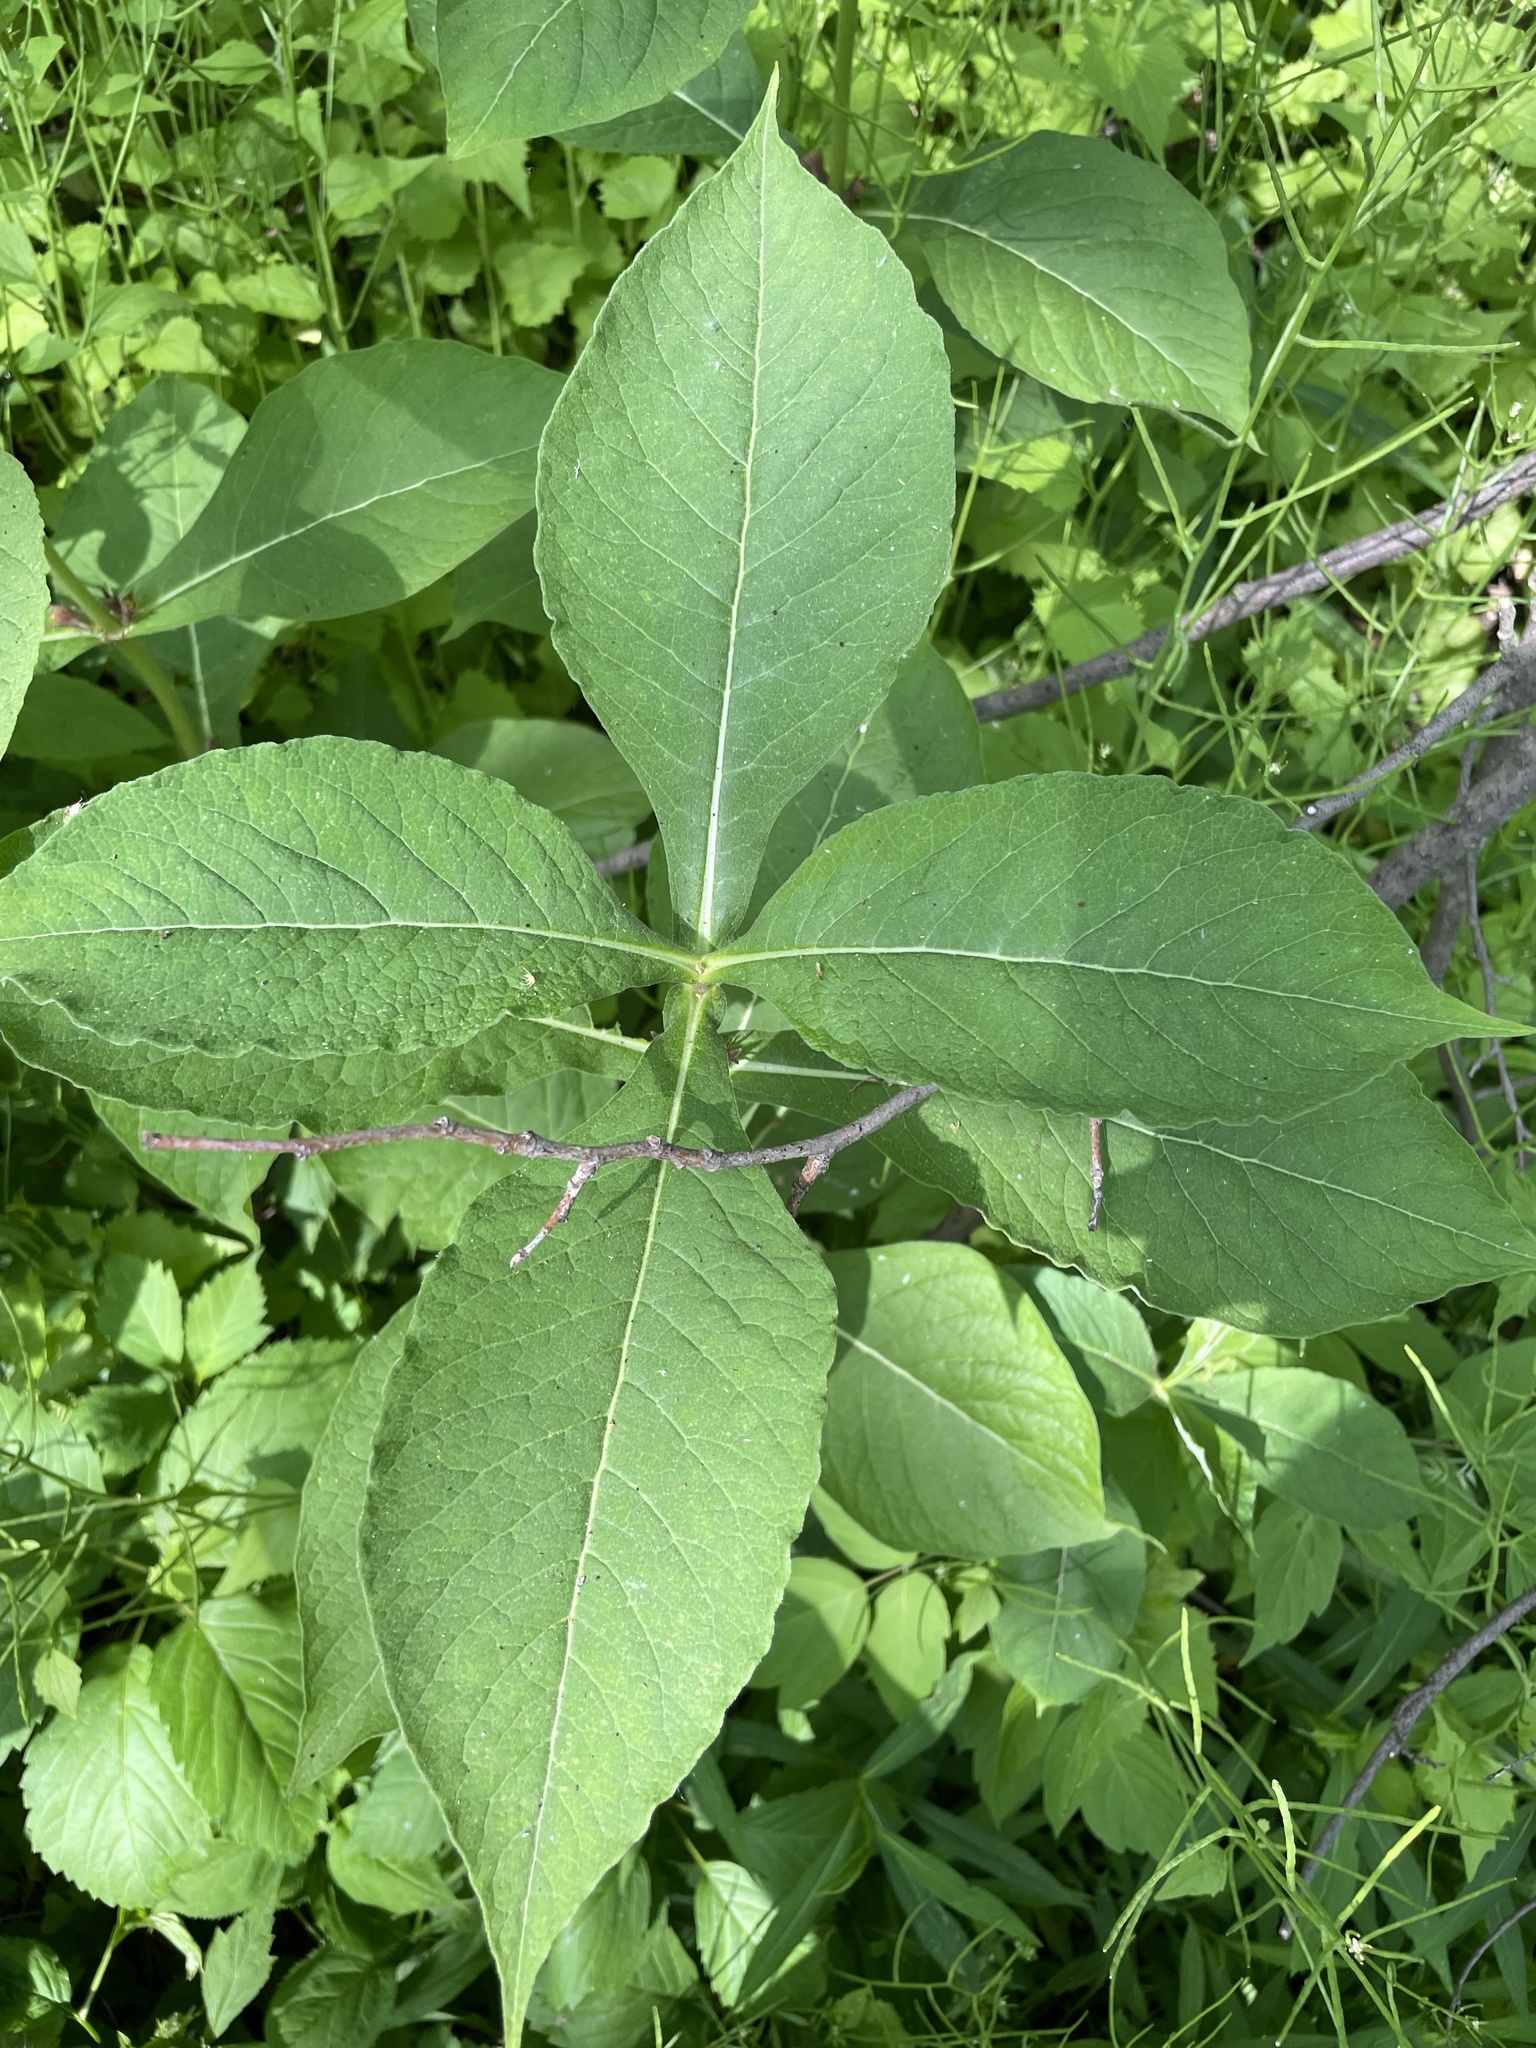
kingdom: Plantae
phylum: Tracheophyta
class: Magnoliopsida
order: Dipsacales
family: Caprifoliaceae
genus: Triosteum
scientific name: Triosteum aurantiacum
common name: Coffee tinker's-weed
